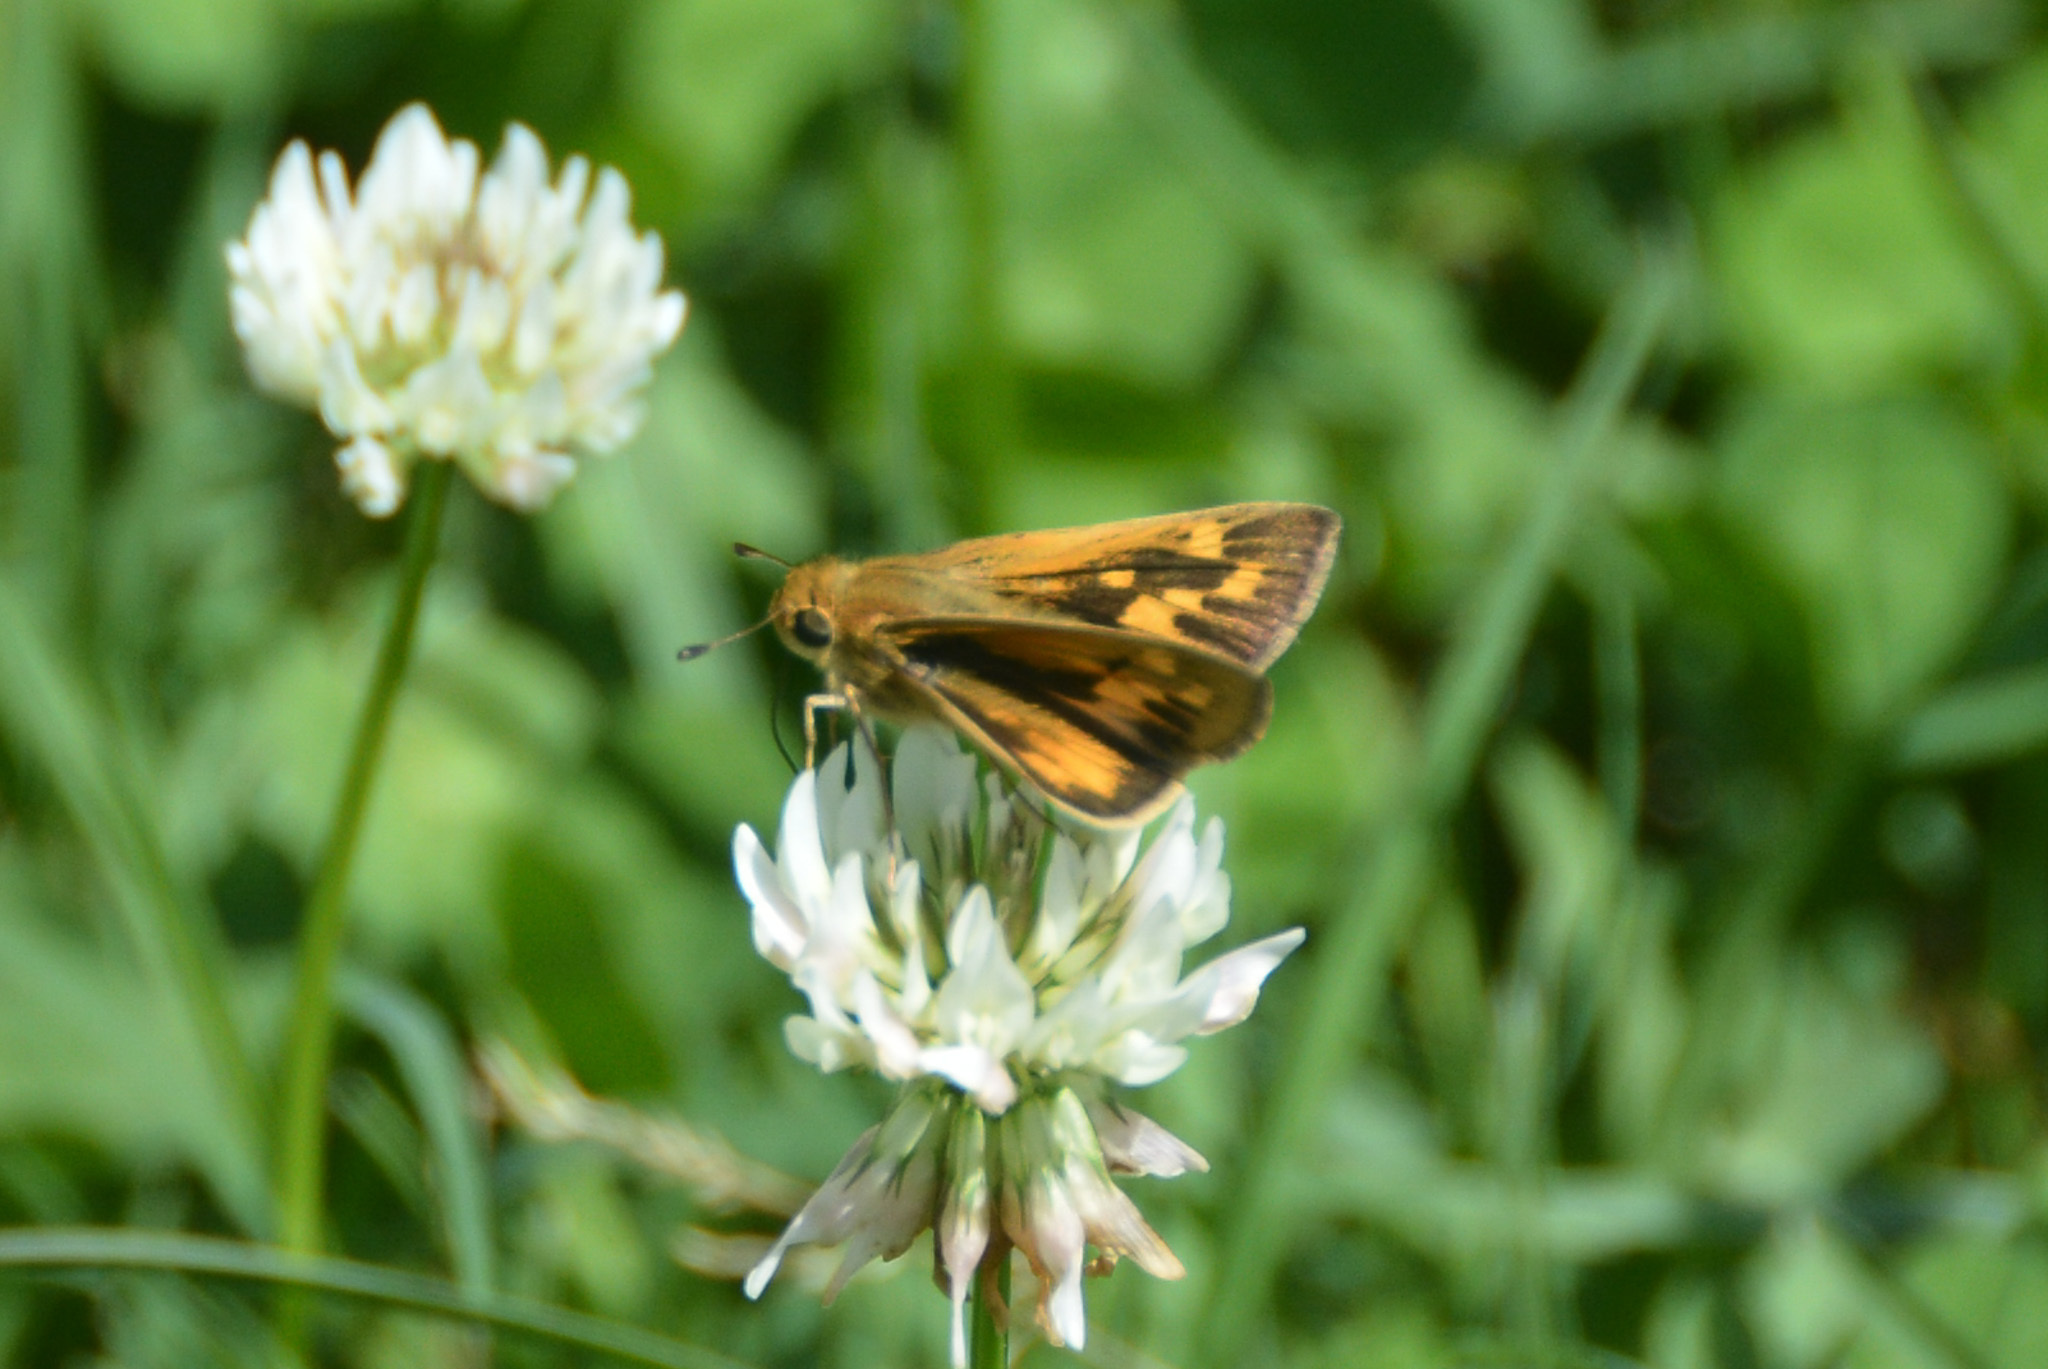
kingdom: Animalia
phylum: Arthropoda
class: Insecta
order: Lepidoptera
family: Hesperiidae
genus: Polites
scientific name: Polites vibex
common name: Whirlabout
